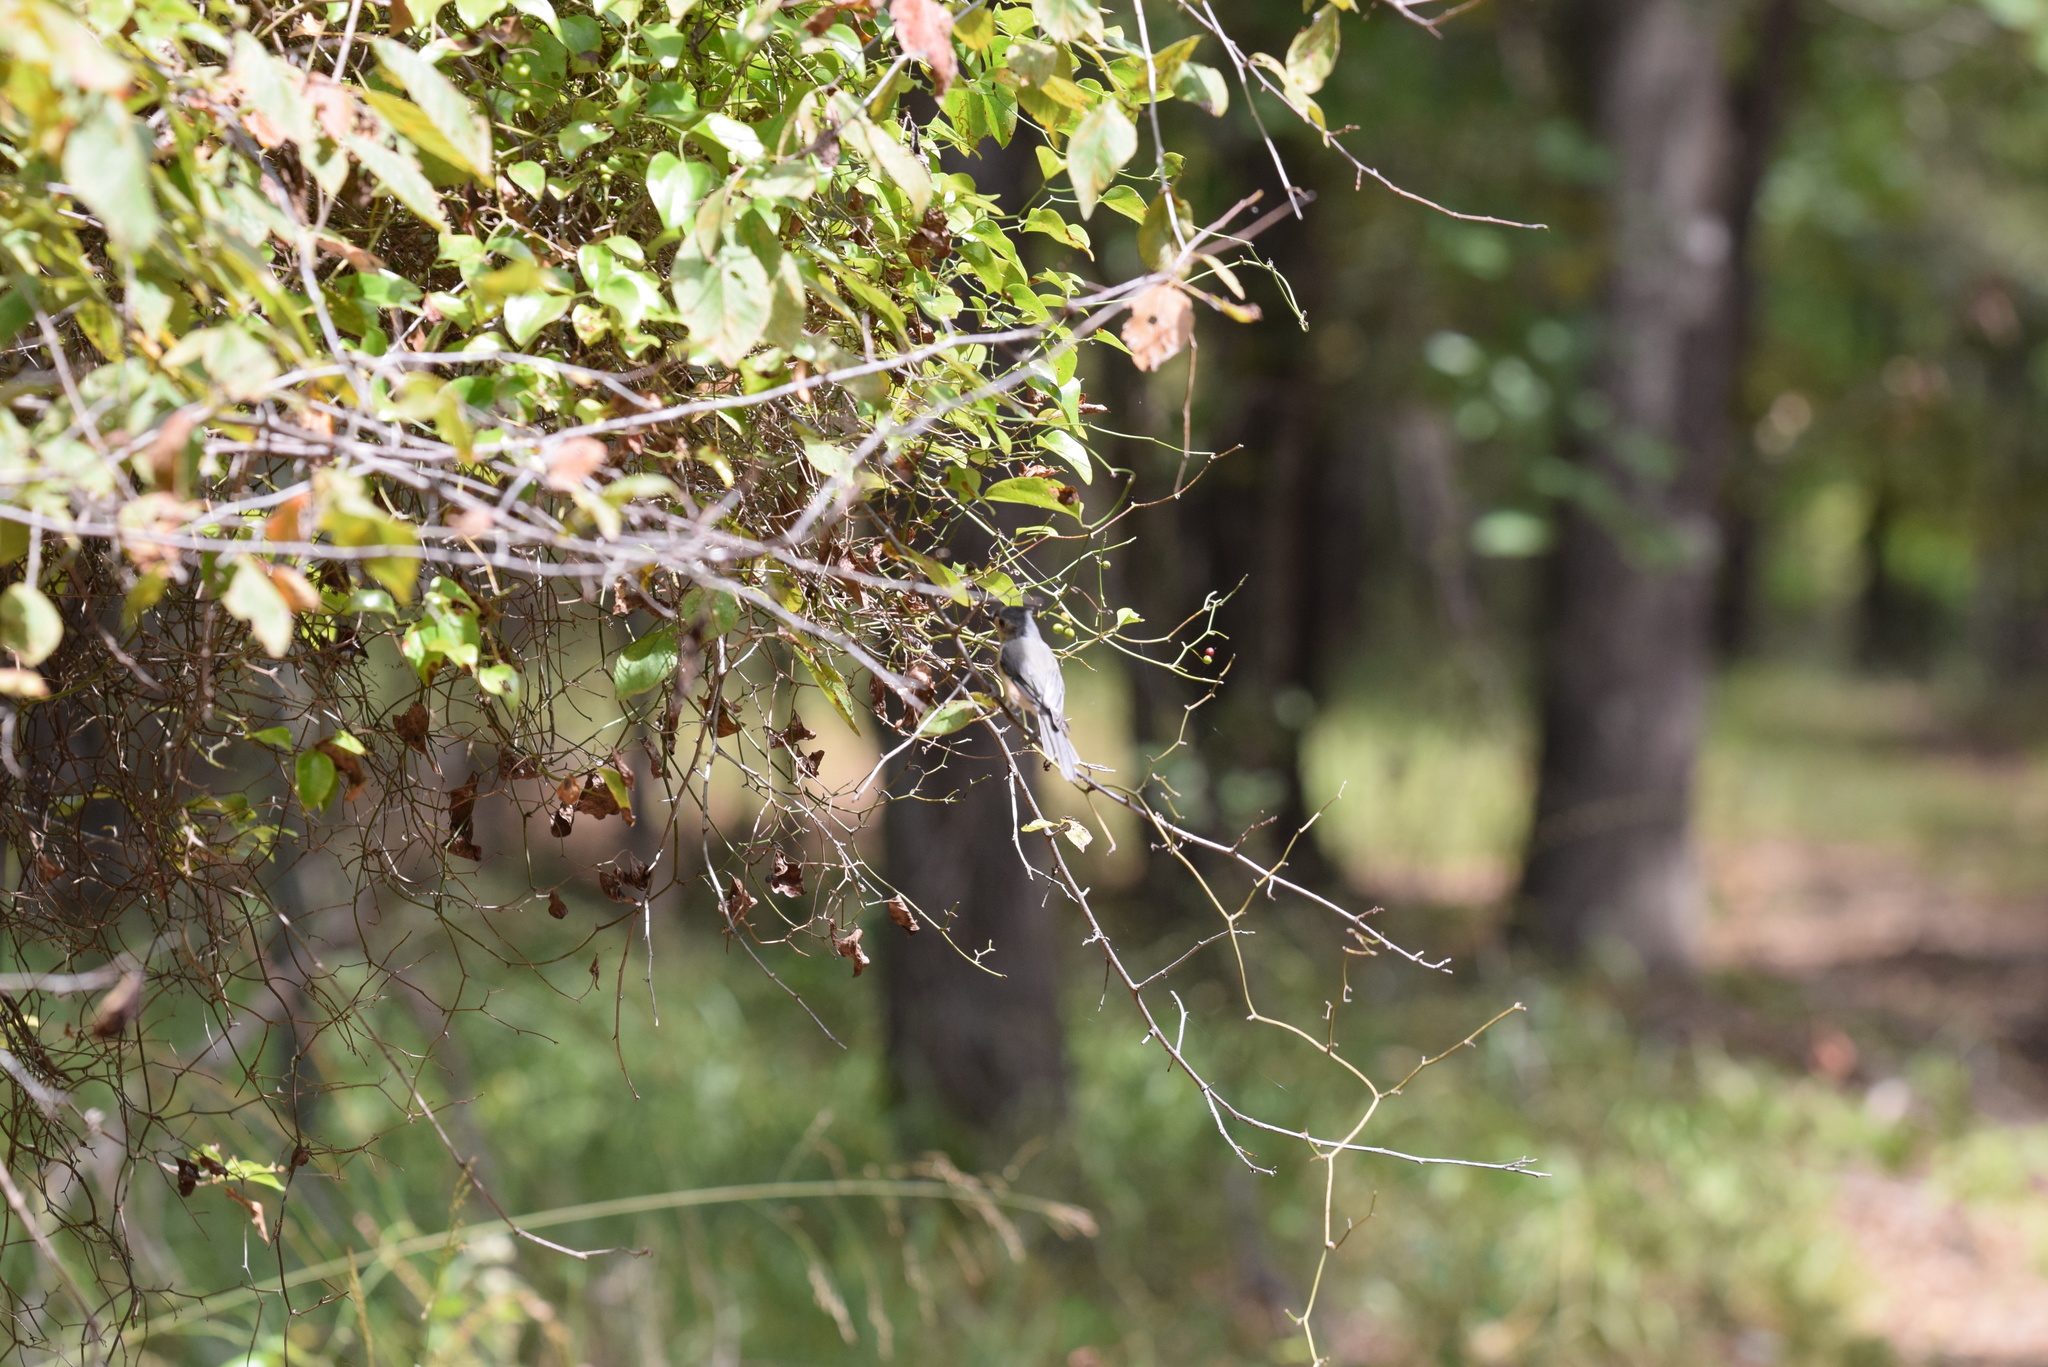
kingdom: Animalia
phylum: Chordata
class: Aves
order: Passeriformes
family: Paridae
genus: Baeolophus
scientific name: Baeolophus bicolor
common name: Tufted titmouse
